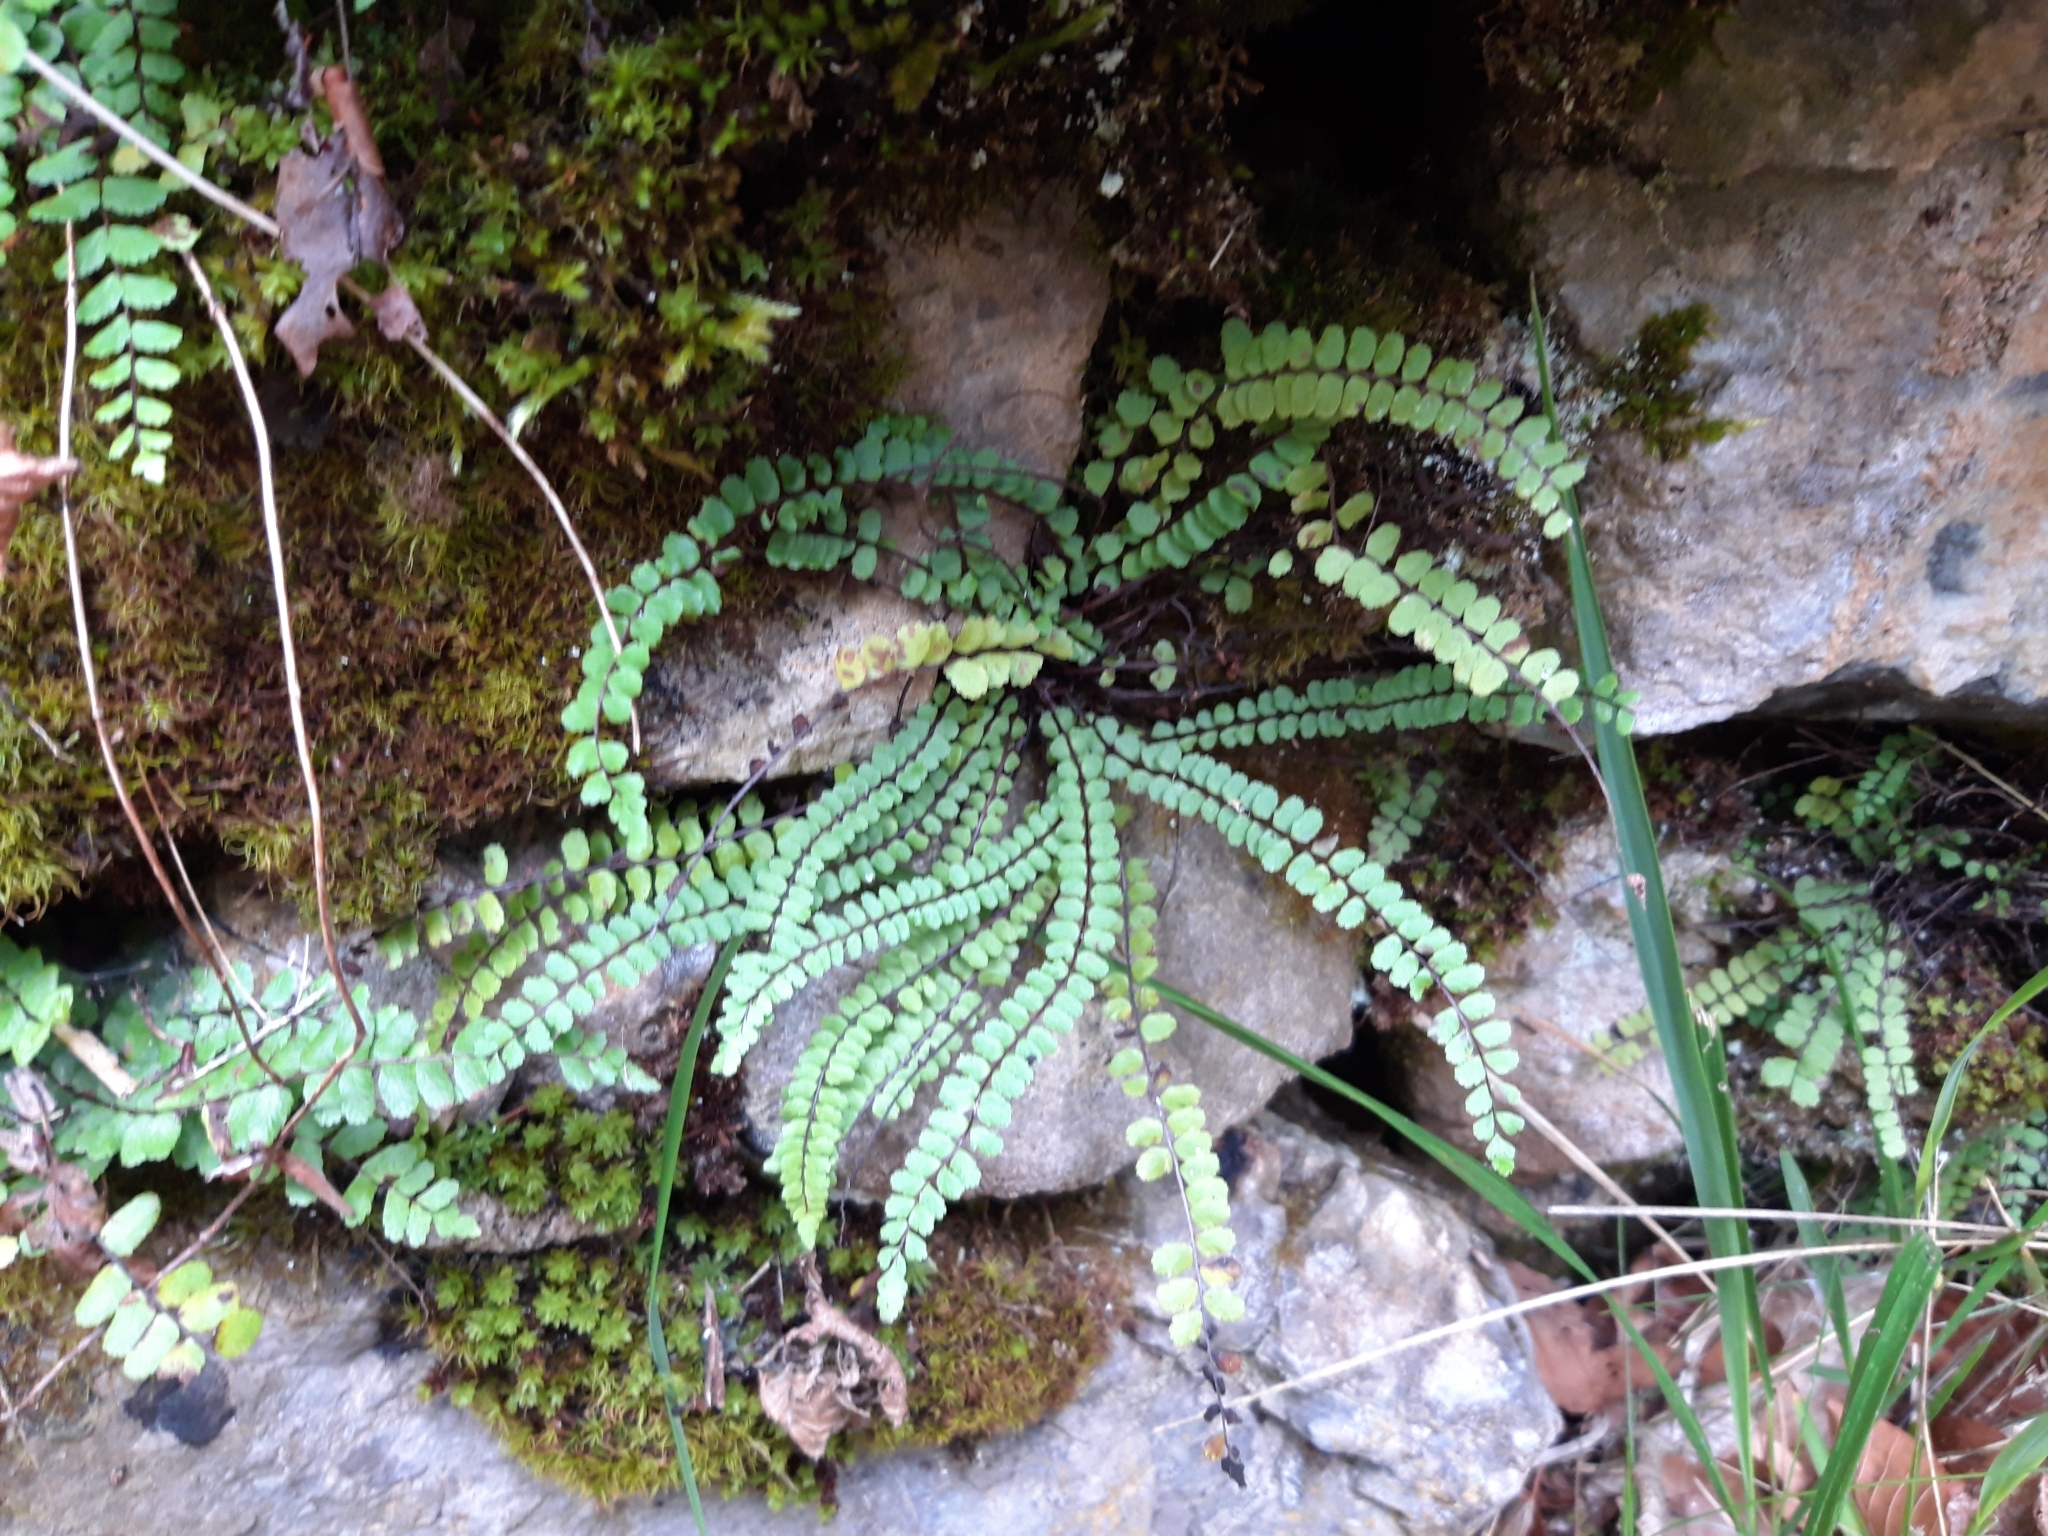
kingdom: Plantae
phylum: Tracheophyta
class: Polypodiopsida
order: Polypodiales
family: Aspleniaceae
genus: Asplenium
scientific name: Asplenium trichomanes
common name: Maidenhair spleenwort
